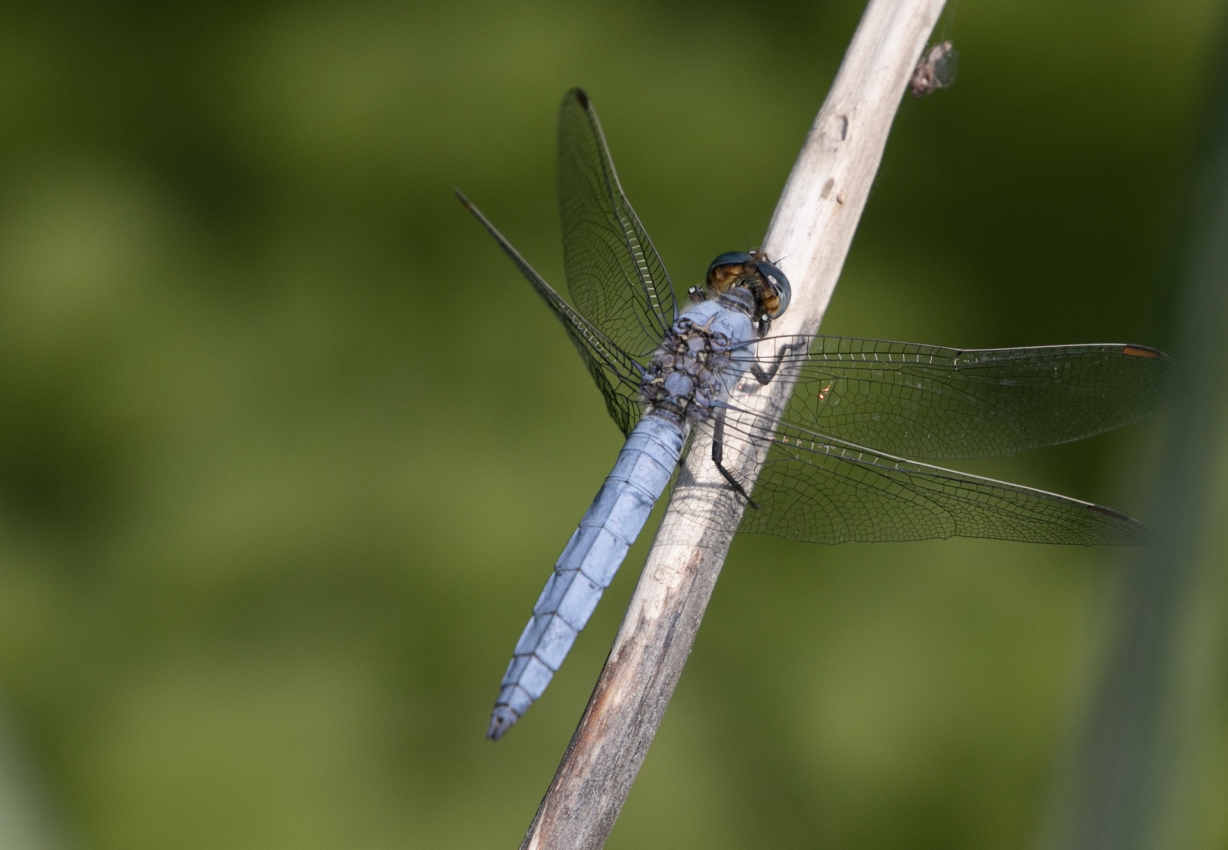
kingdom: Animalia
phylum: Arthropoda
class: Insecta
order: Odonata
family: Libellulidae
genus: Orthetrum
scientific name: Orthetrum brunneum
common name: Southern skimmer
